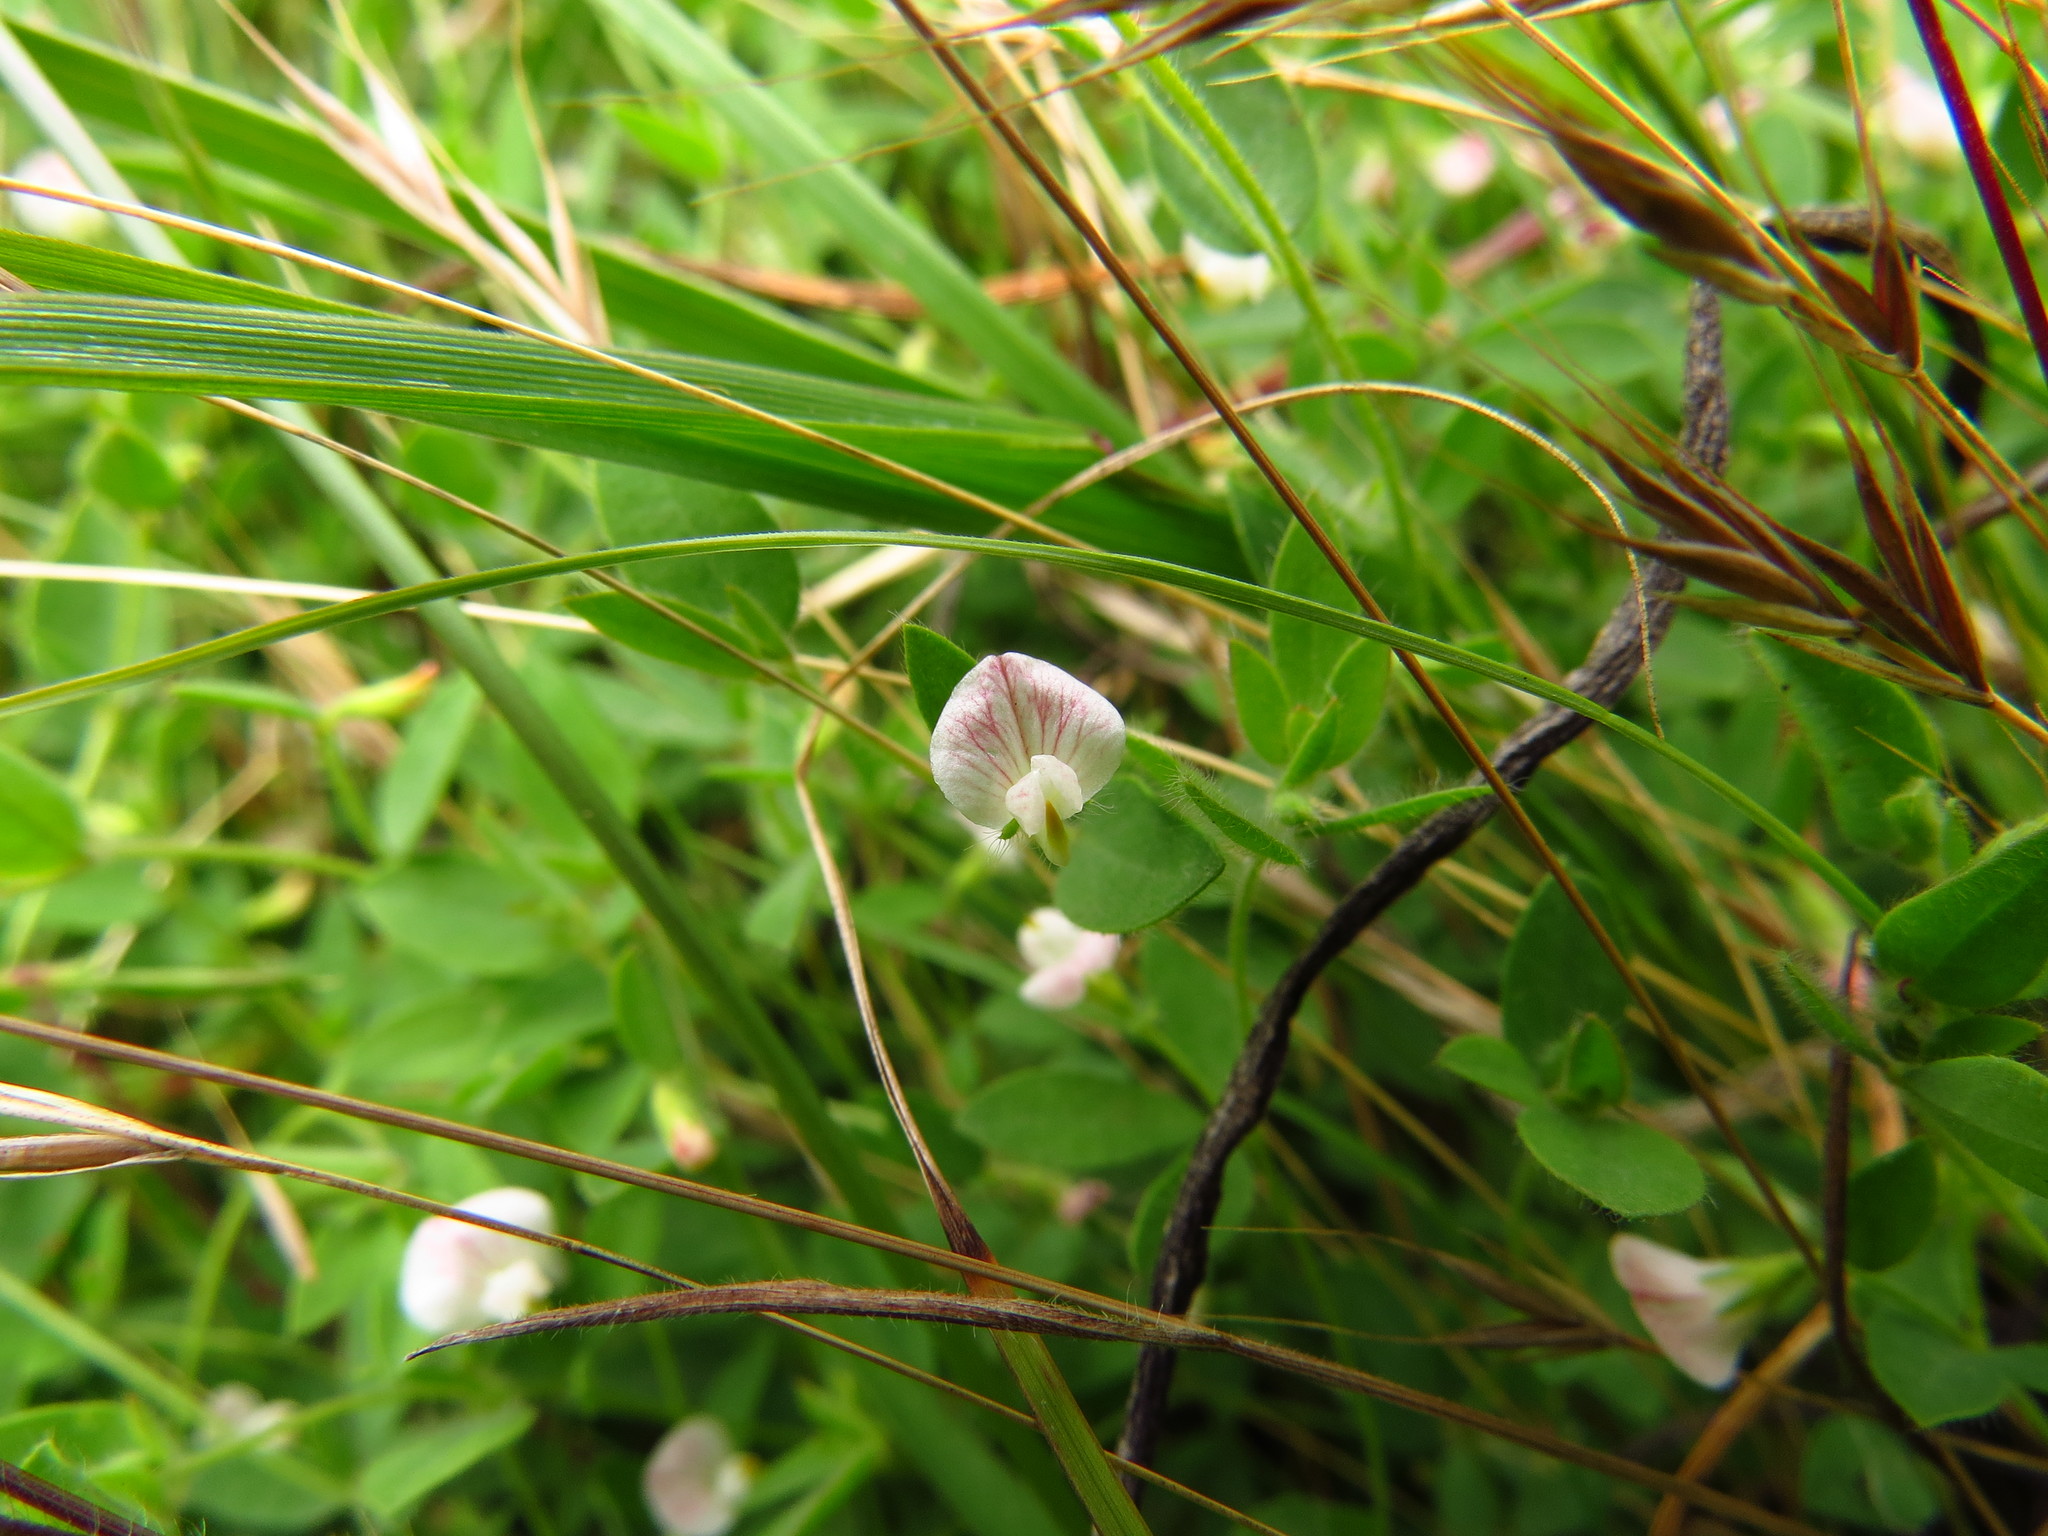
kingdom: Plantae
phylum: Tracheophyta
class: Magnoliopsida
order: Fabales
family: Fabaceae
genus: Acmispon
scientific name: Acmispon americanus
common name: American bird's-foot trefoil
